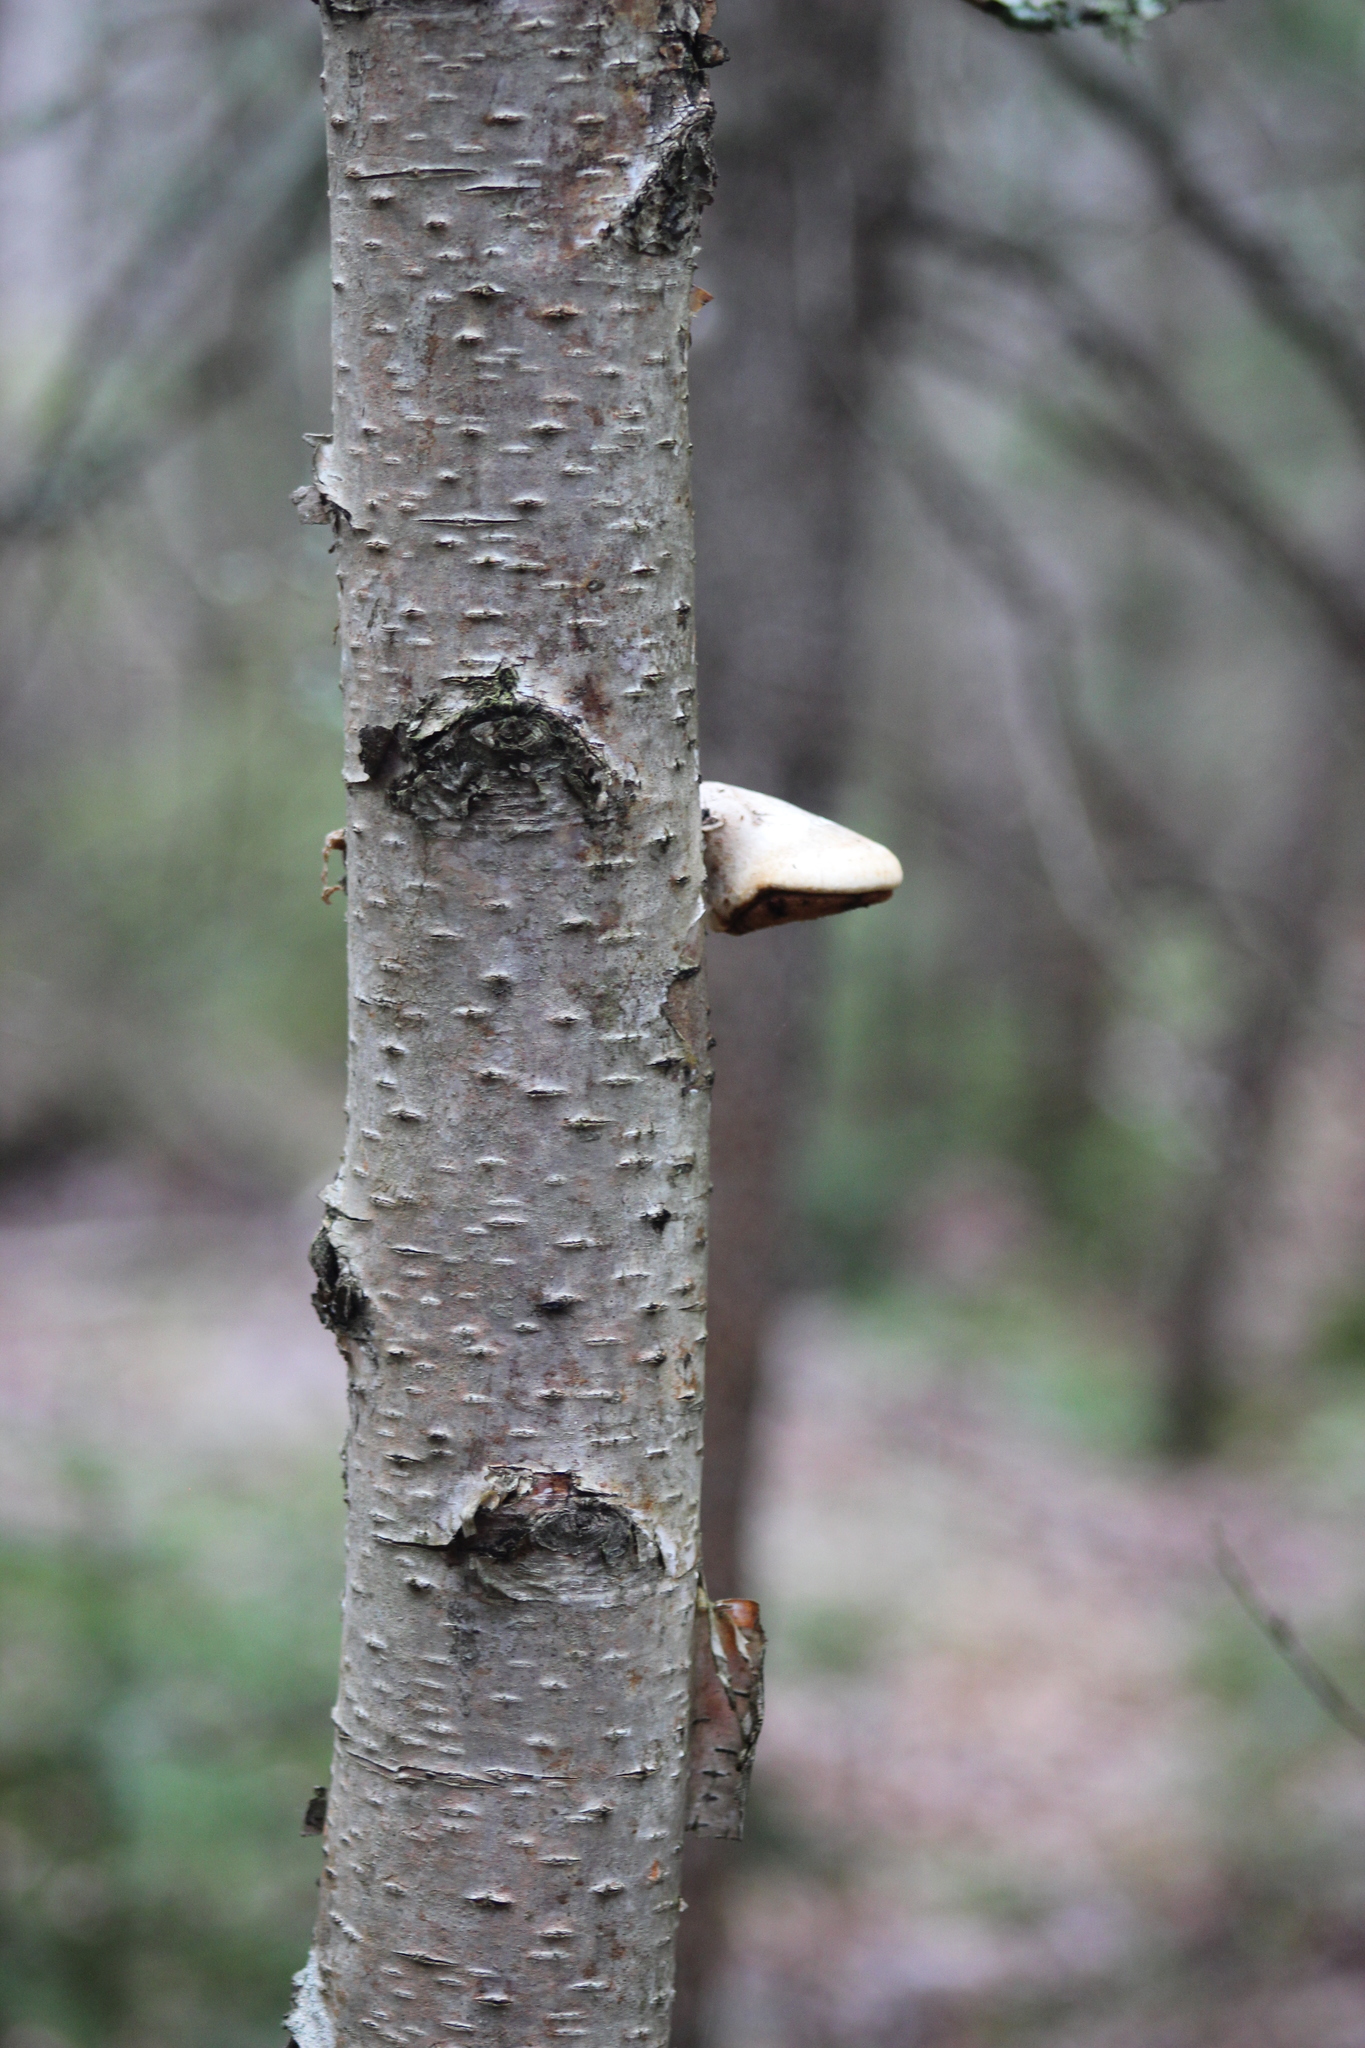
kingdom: Fungi
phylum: Basidiomycota
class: Agaricomycetes
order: Polyporales
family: Fomitopsidaceae
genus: Fomitopsis
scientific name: Fomitopsis betulina
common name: Birch polypore
